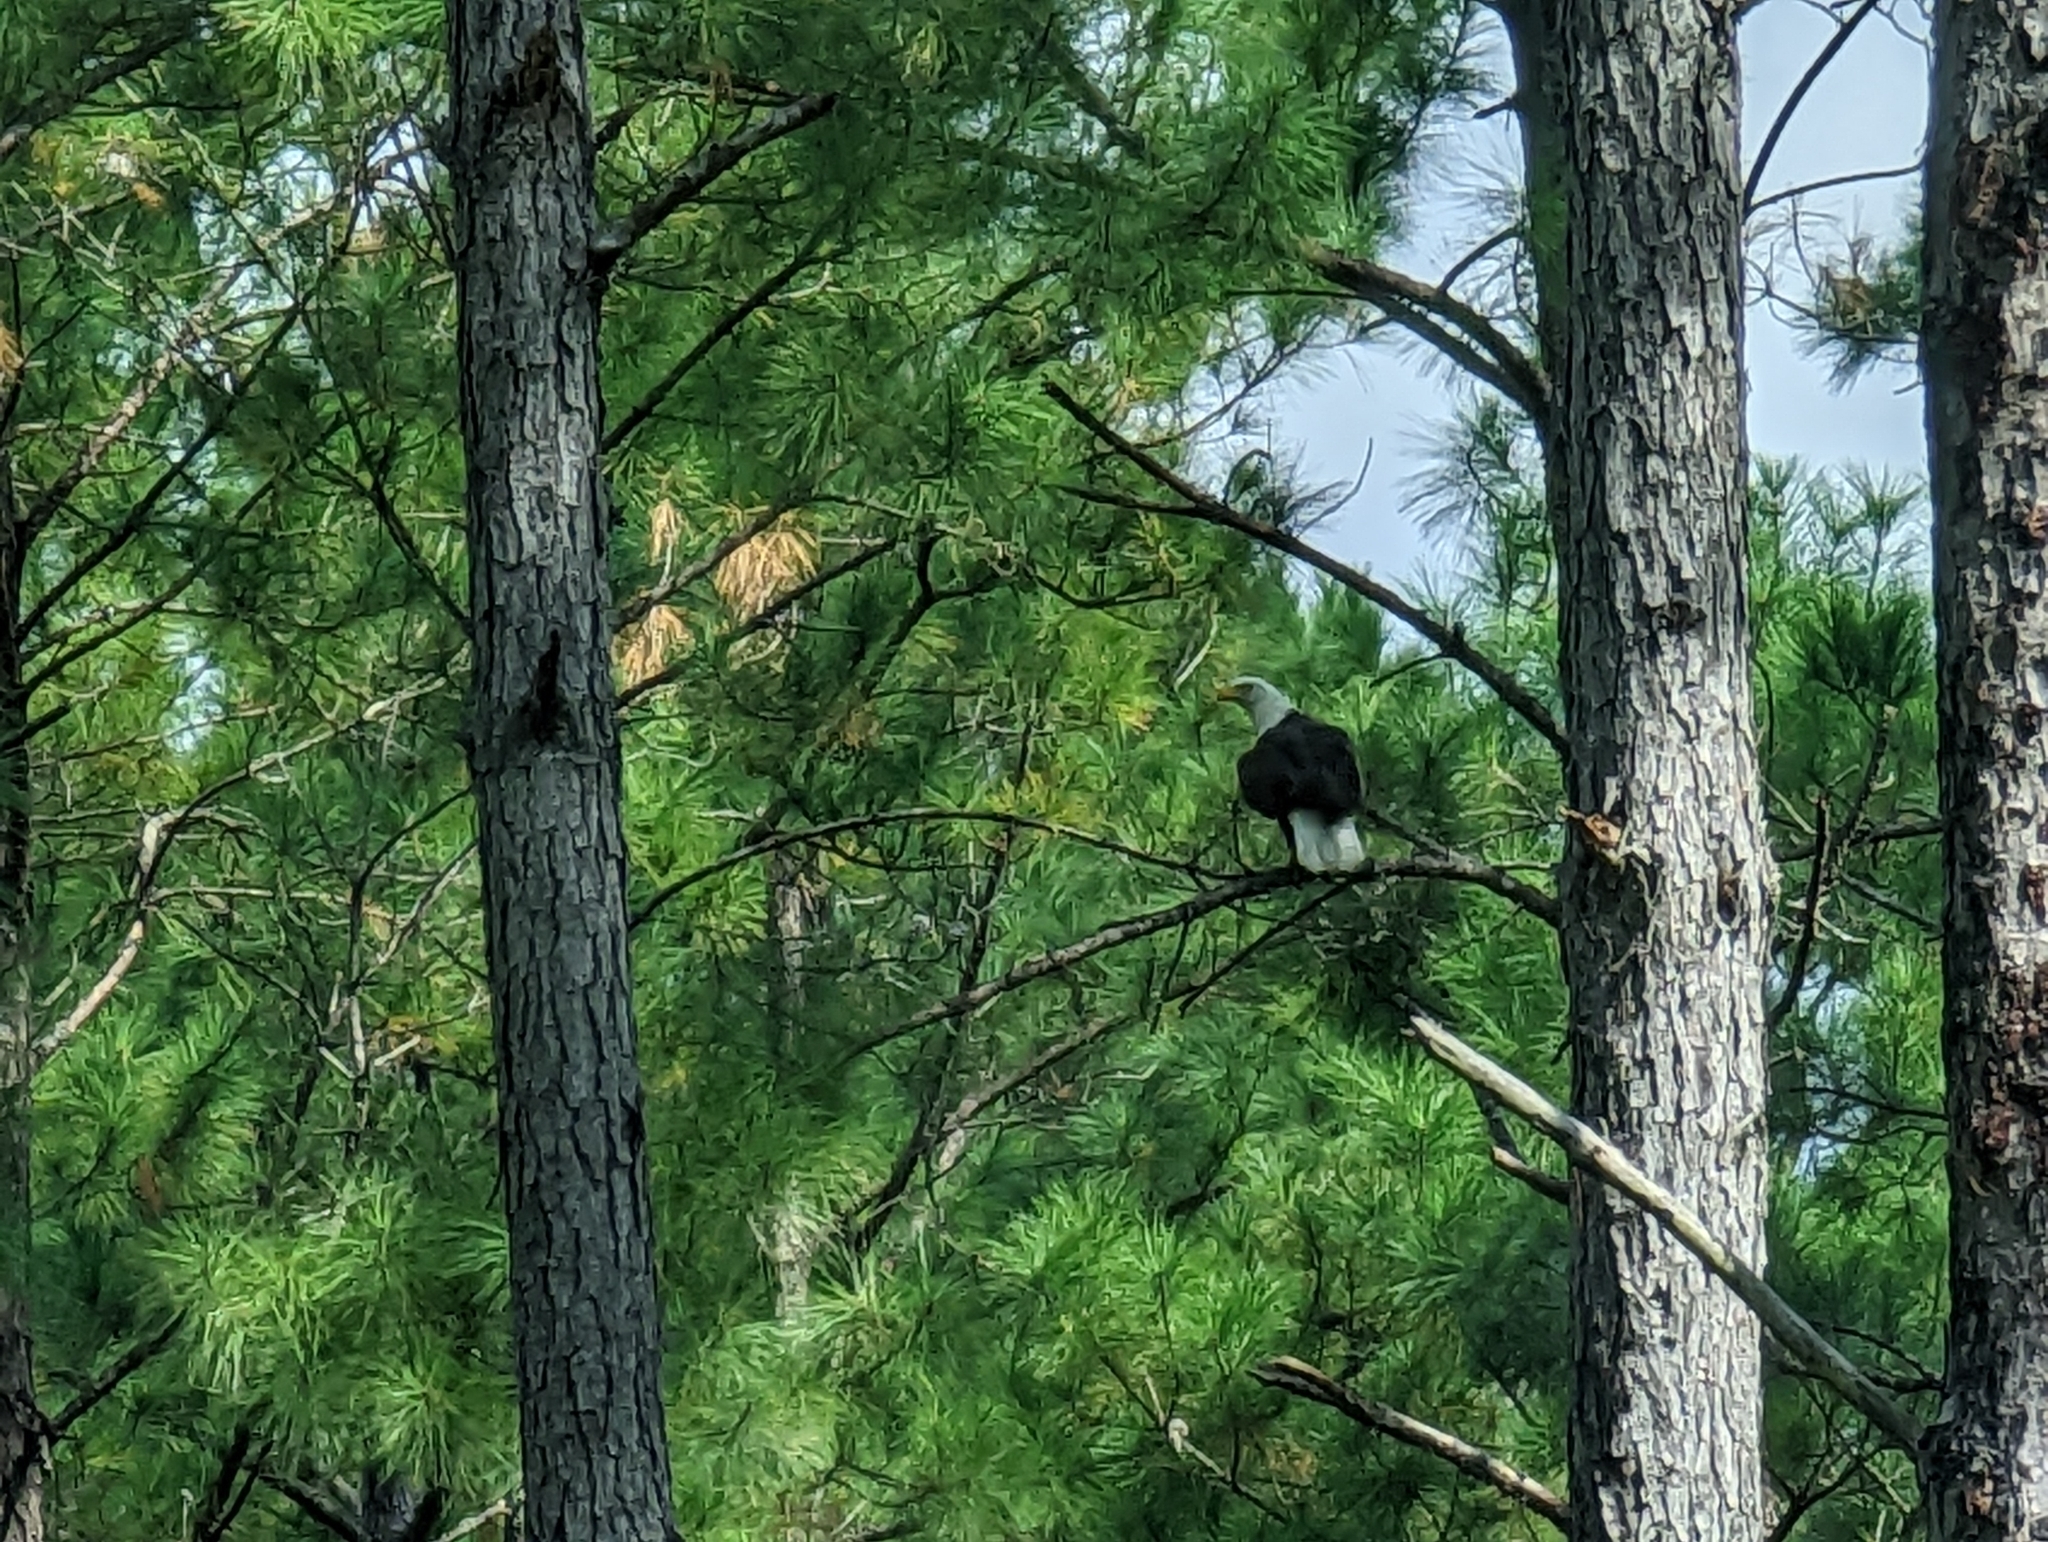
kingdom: Animalia
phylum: Chordata
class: Aves
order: Accipitriformes
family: Accipitridae
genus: Haliaeetus
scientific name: Haliaeetus leucocephalus
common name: Bald eagle
